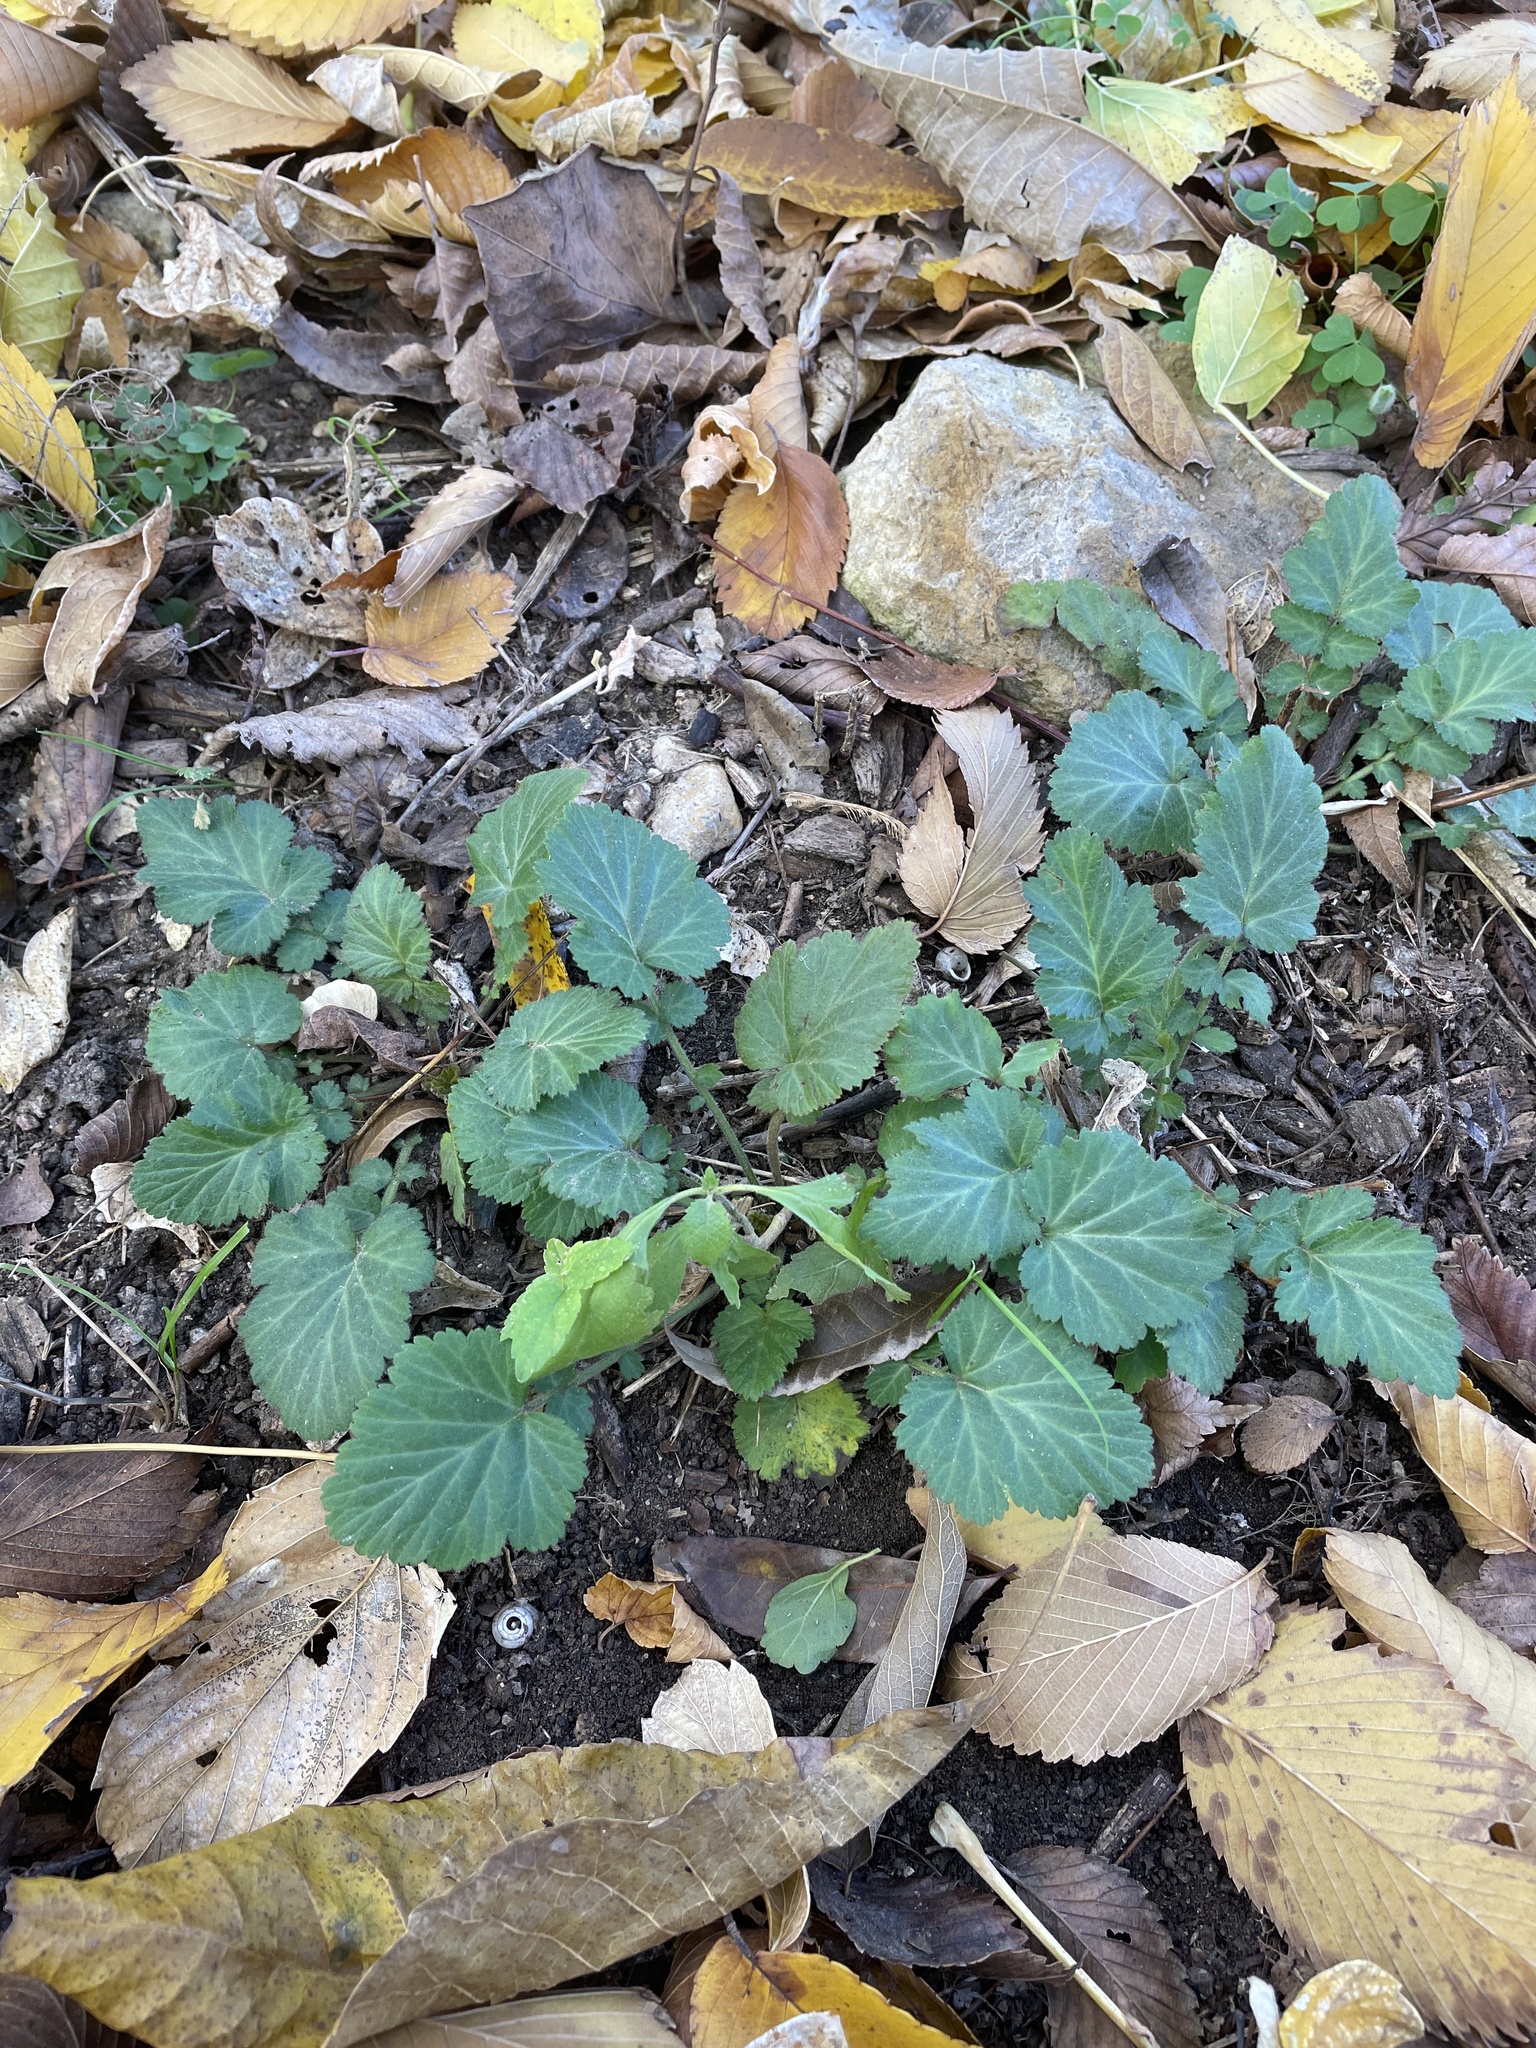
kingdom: Plantae
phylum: Tracheophyta
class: Magnoliopsida
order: Rosales
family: Rosaceae
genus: Geum
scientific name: Geum canadense
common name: White avens
